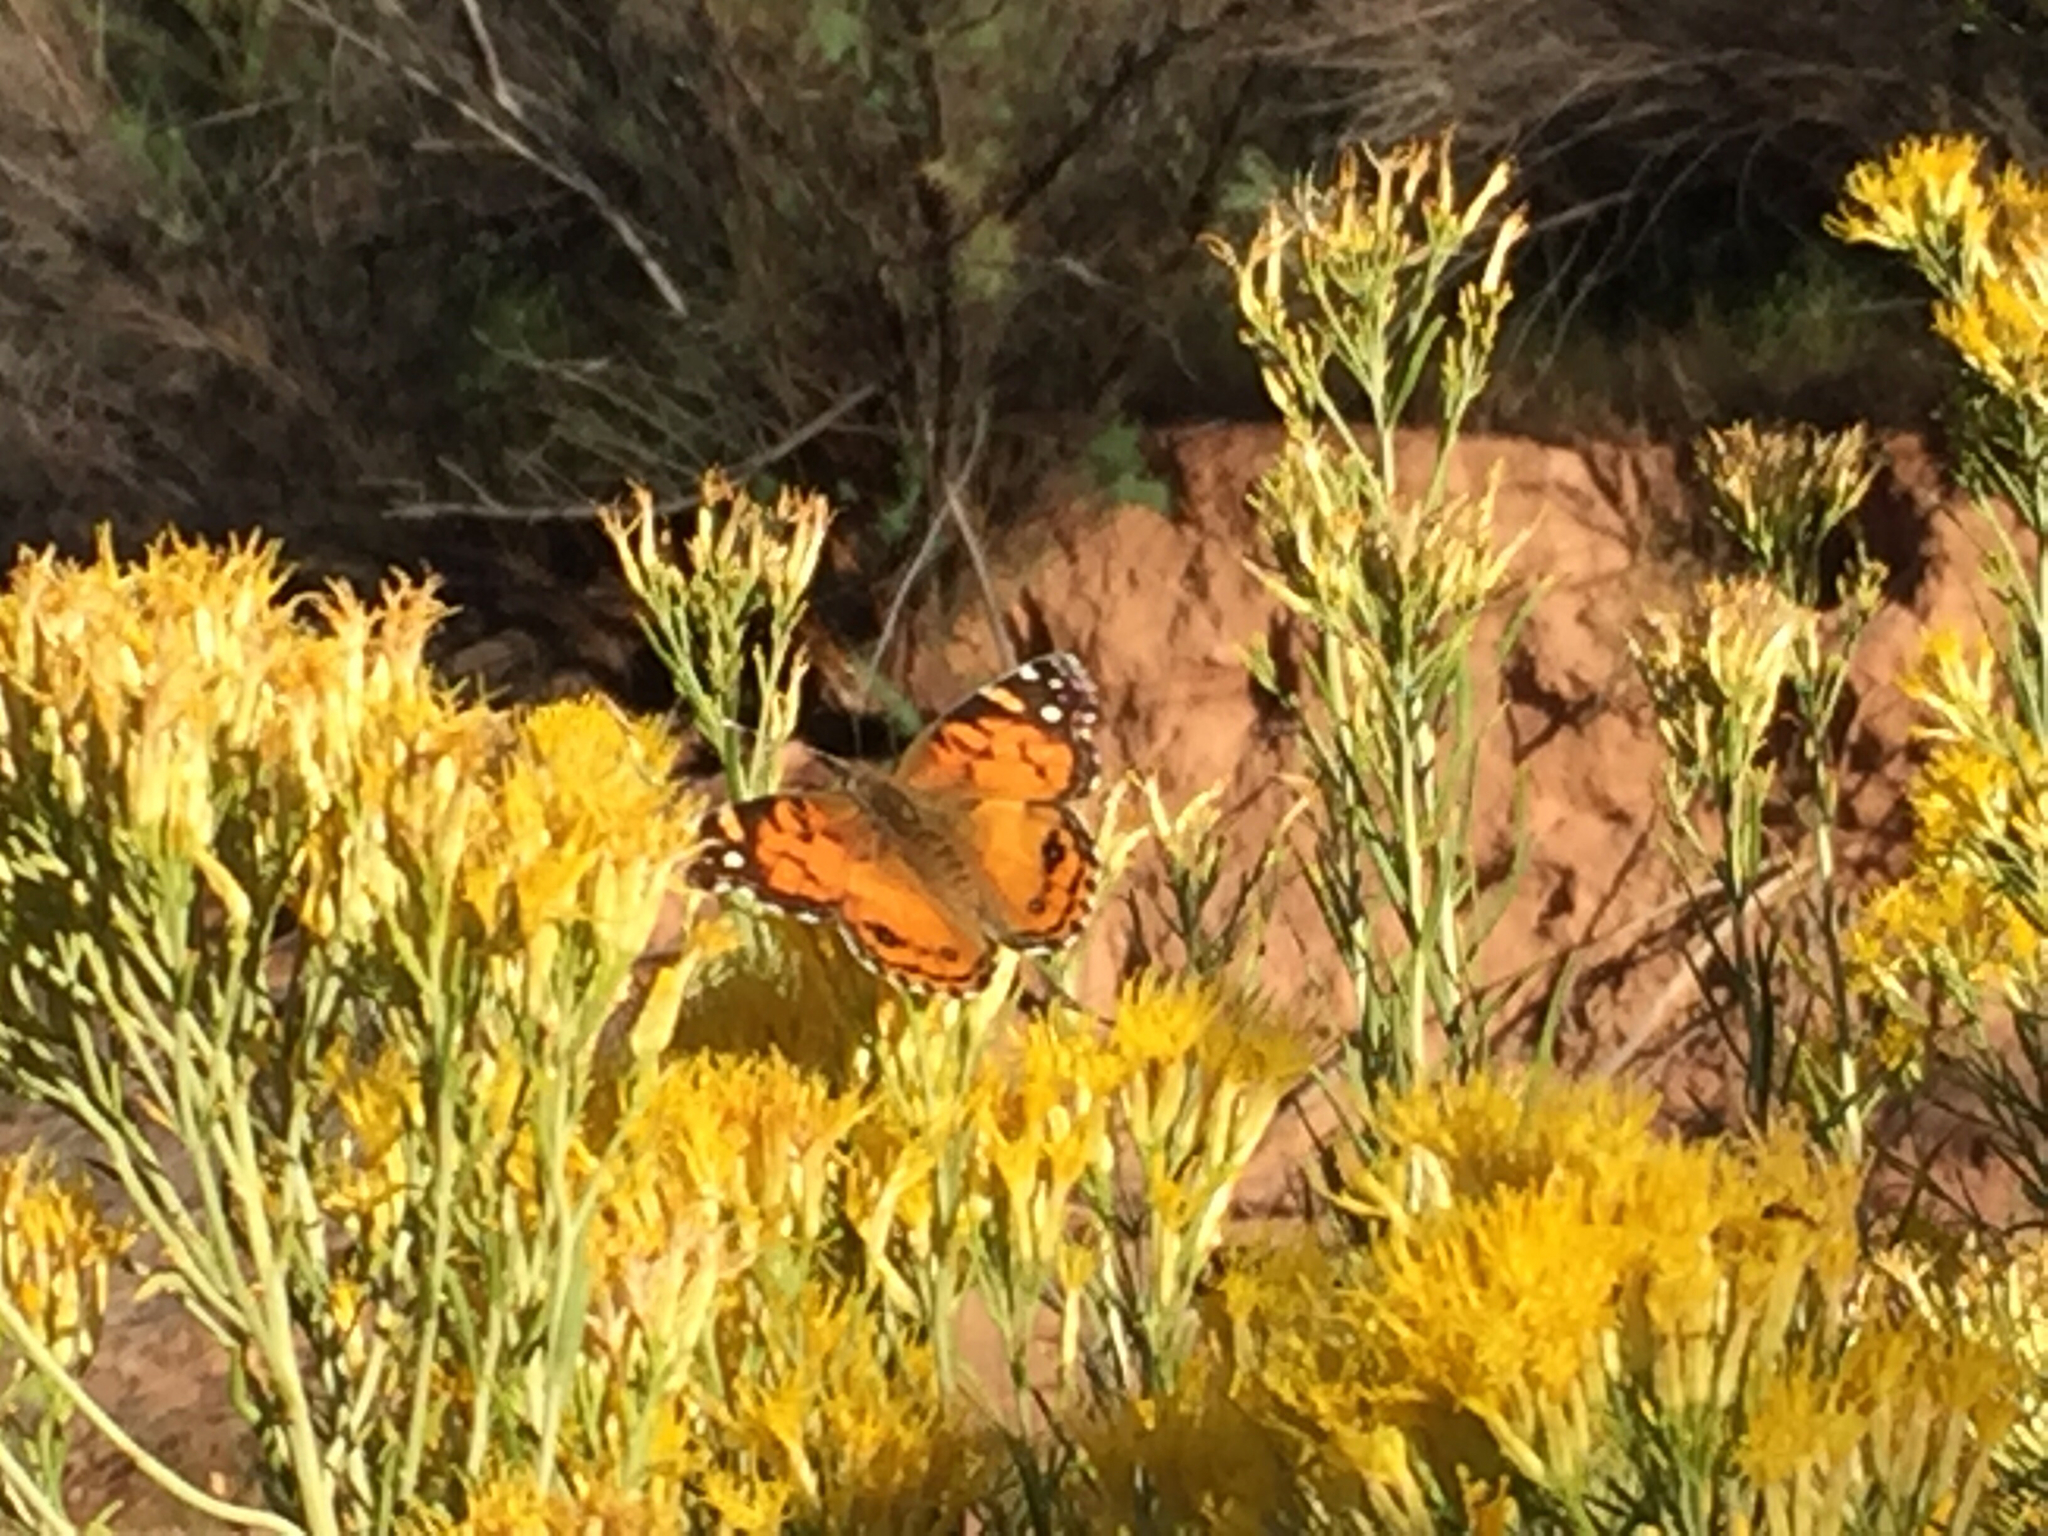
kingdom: Animalia
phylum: Arthropoda
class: Insecta
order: Lepidoptera
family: Nymphalidae
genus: Vanessa
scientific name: Vanessa virginiensis
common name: American lady
